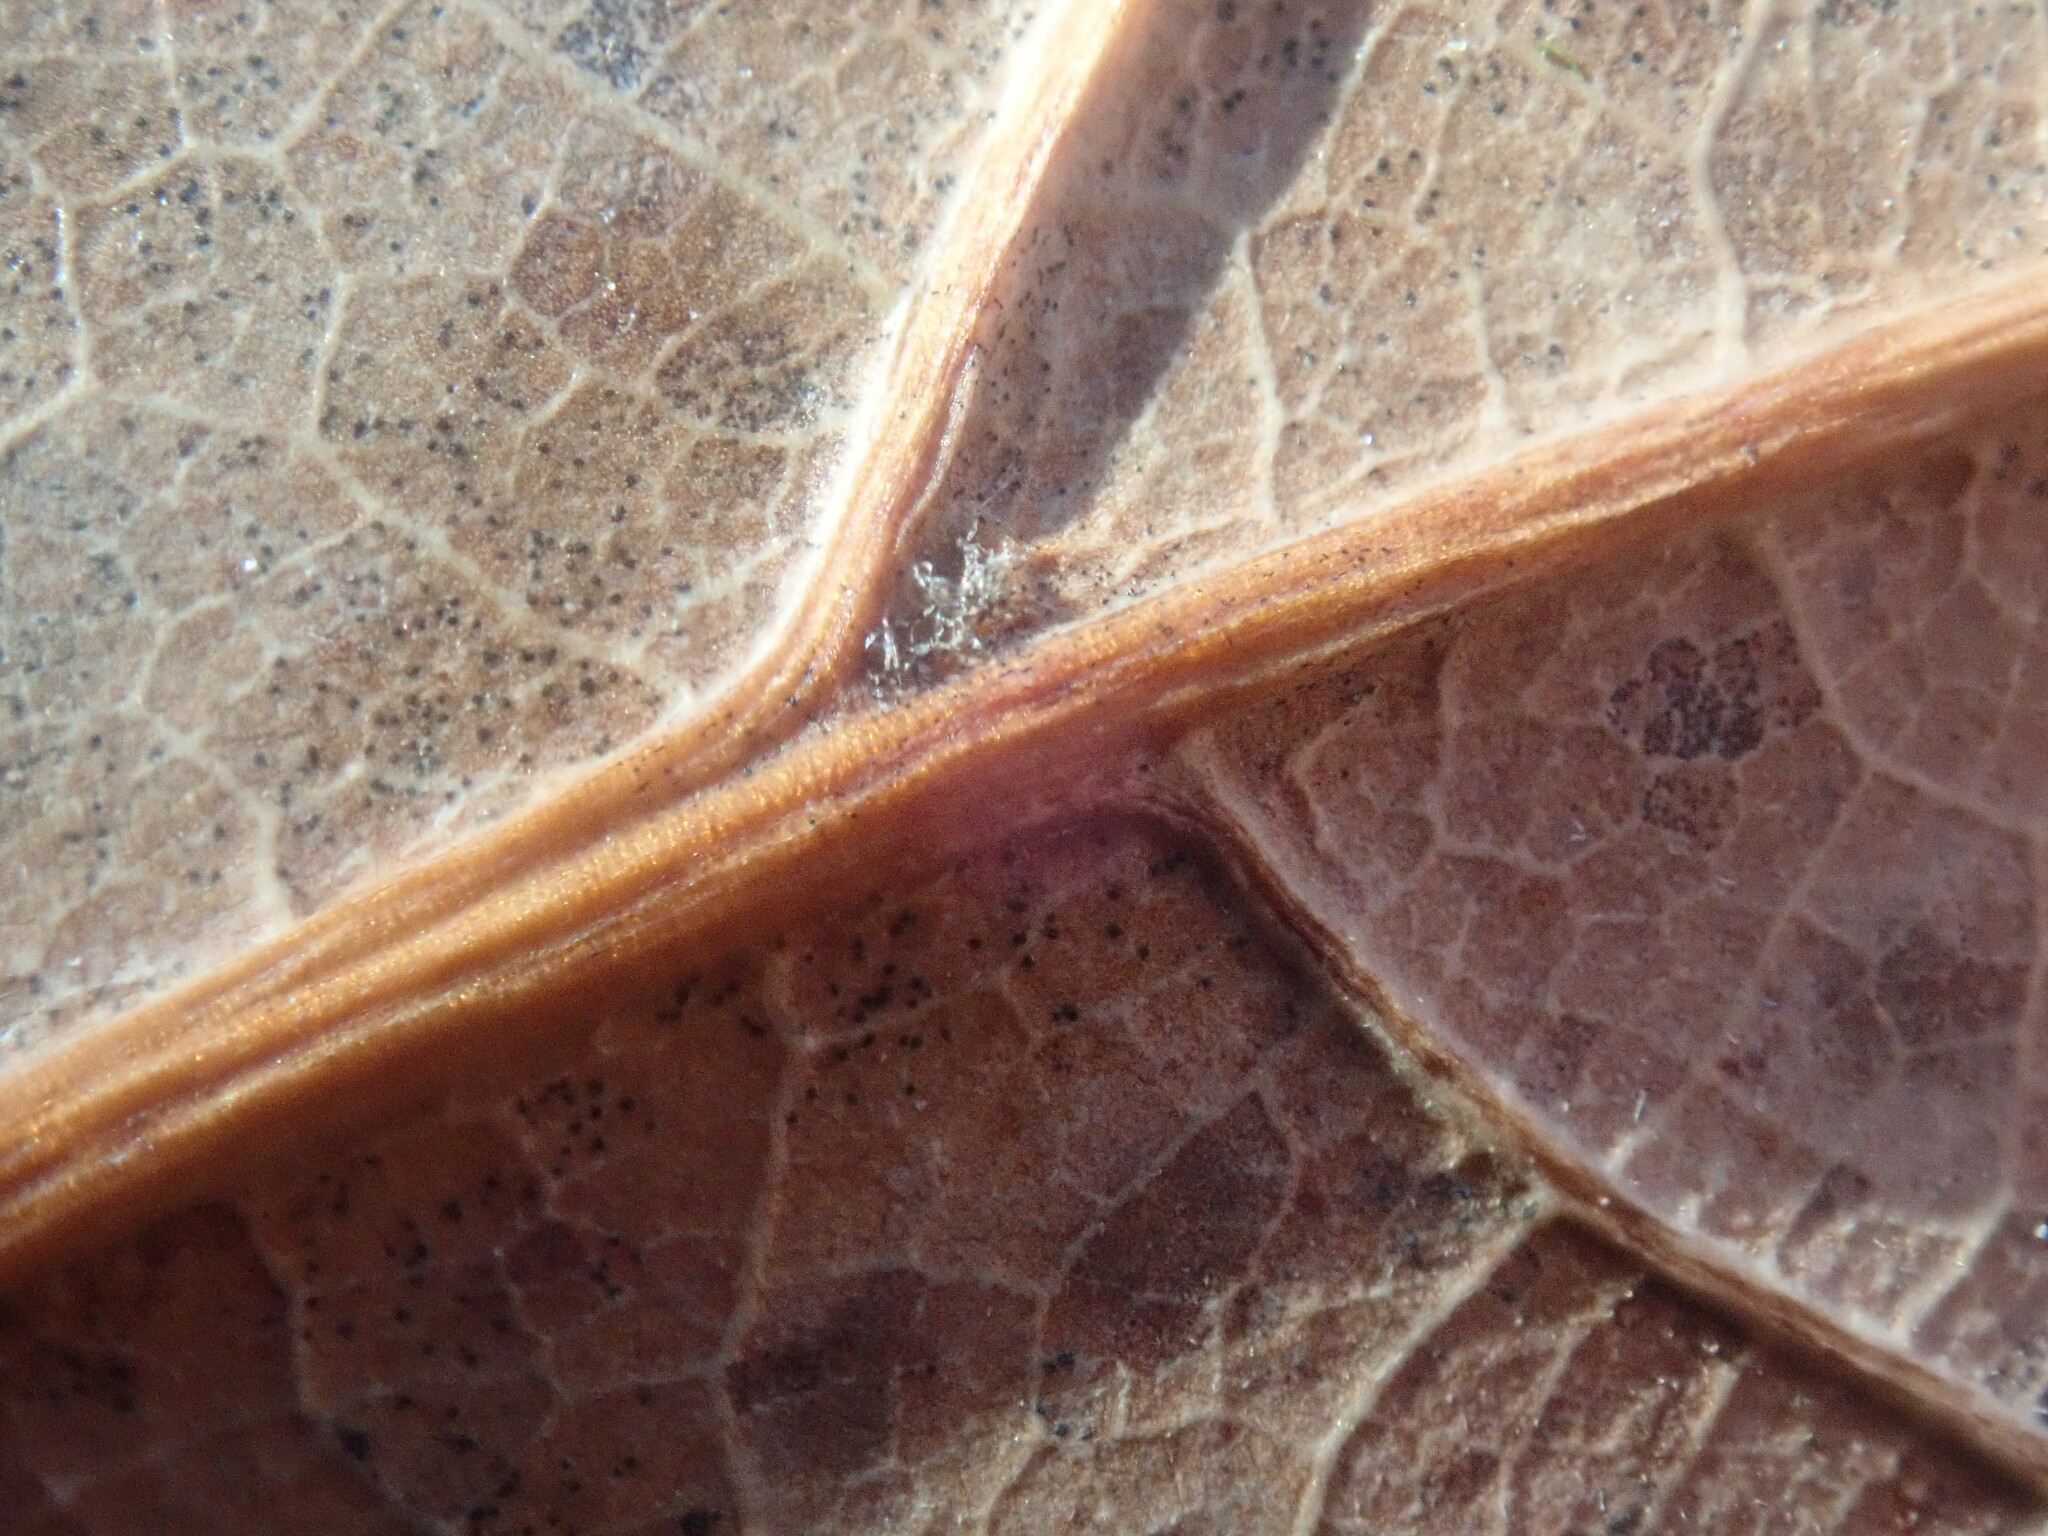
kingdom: Plantae
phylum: Tracheophyta
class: Magnoliopsida
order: Fagales
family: Fagaceae
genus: Quercus
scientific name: Quercus rubra
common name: Red oak
